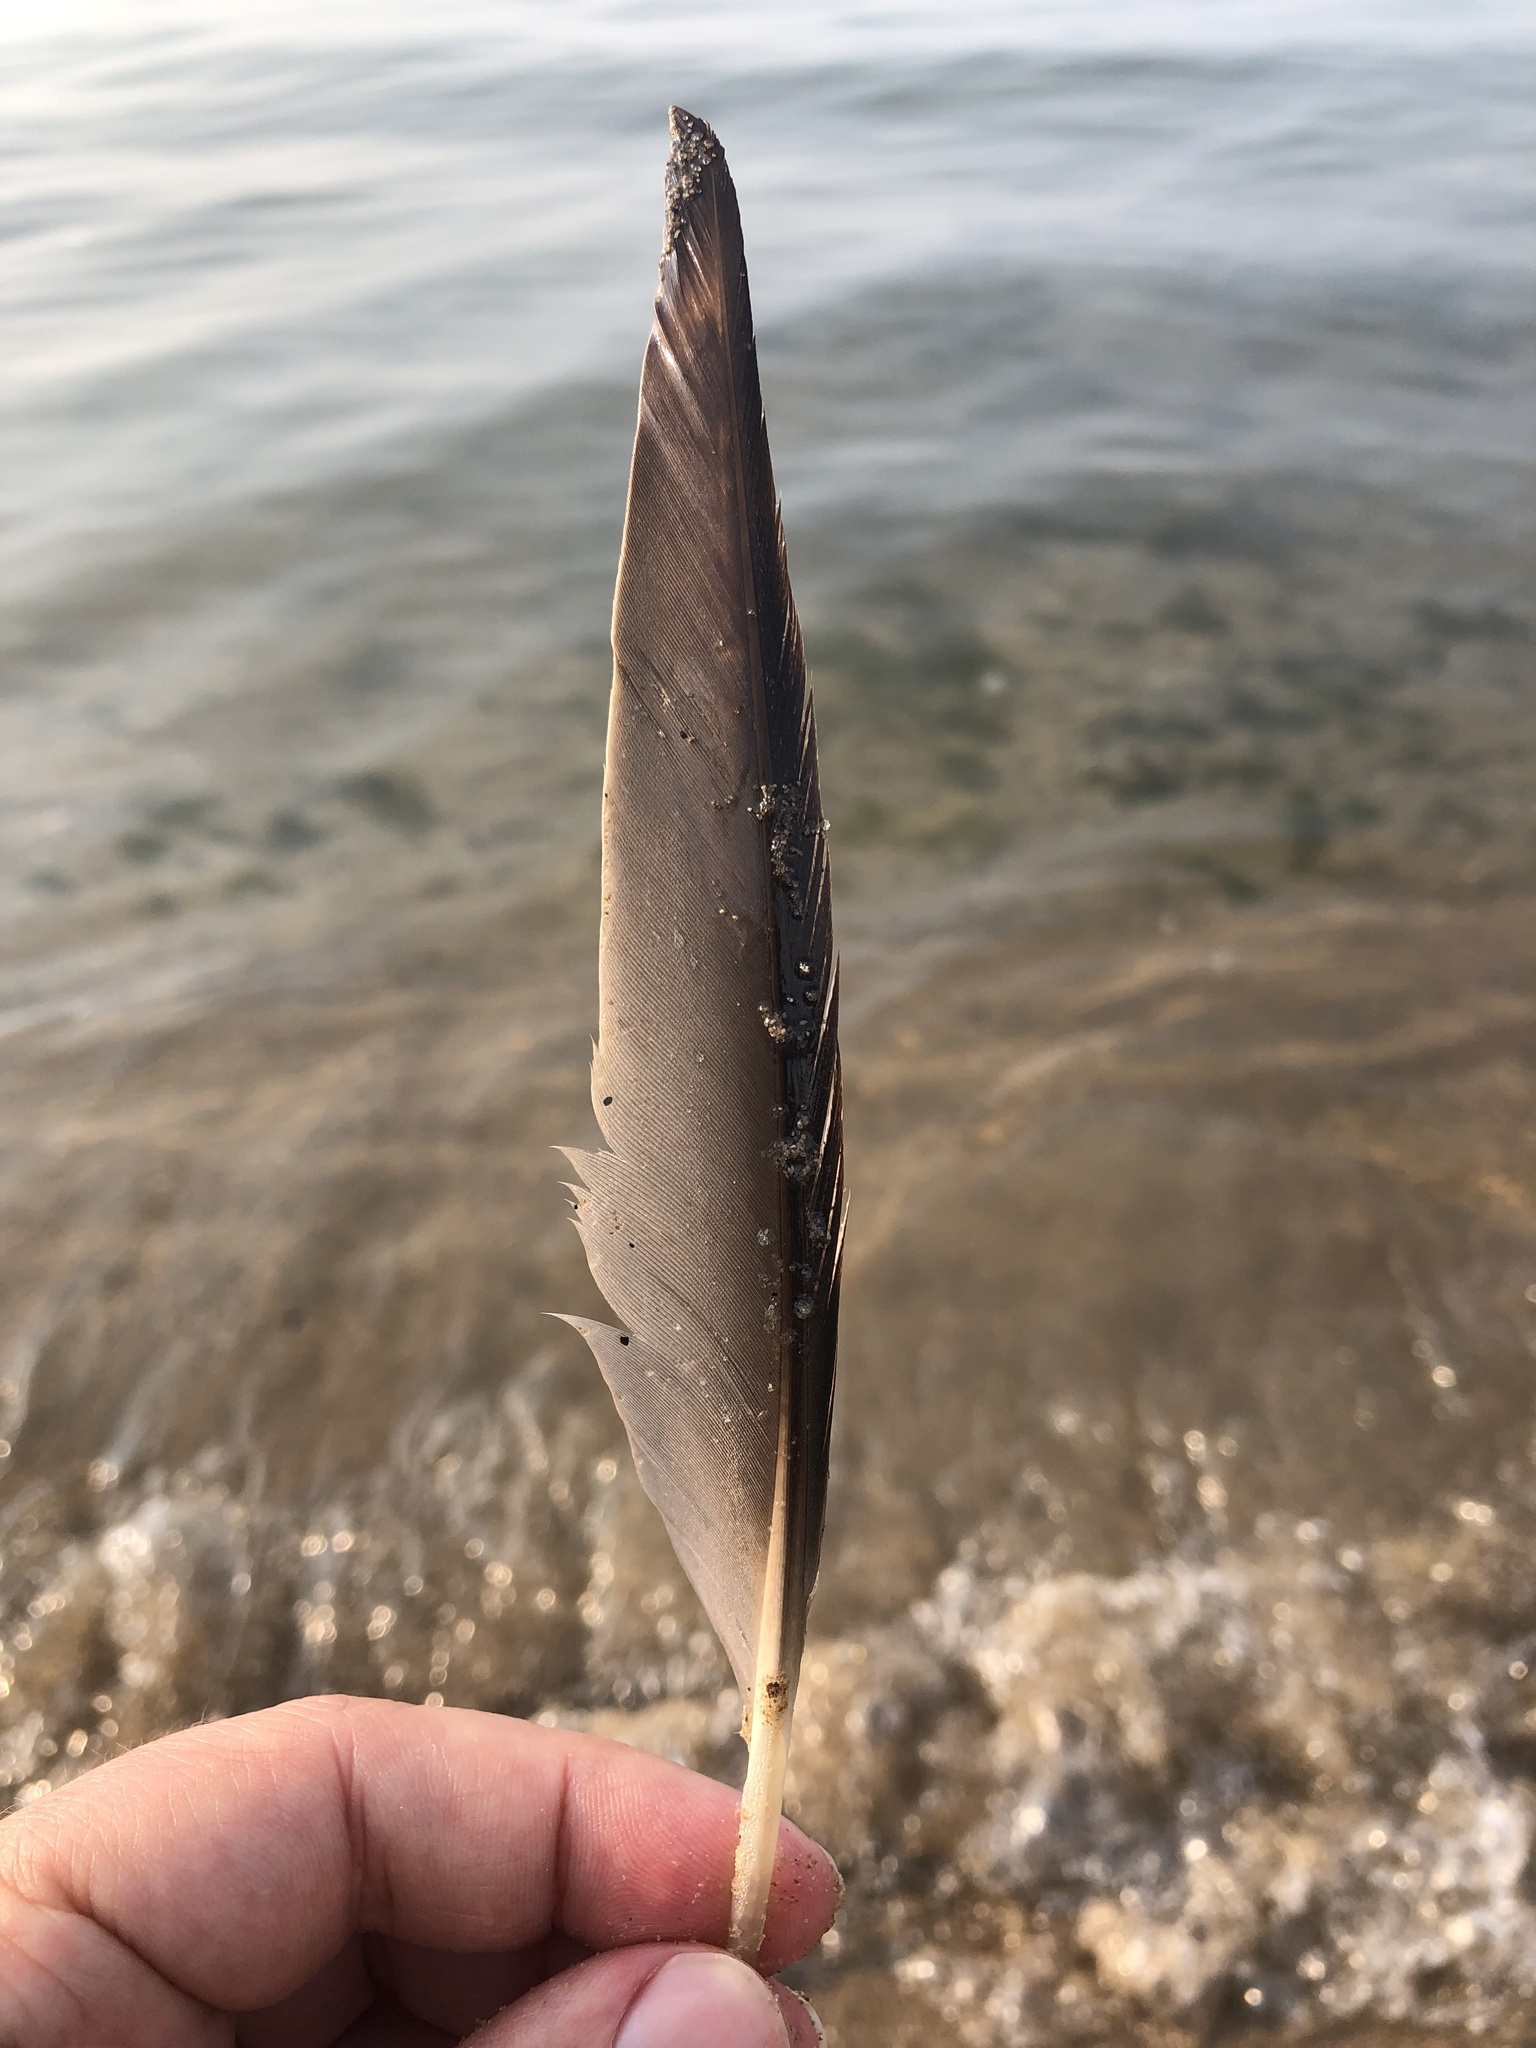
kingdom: Animalia
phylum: Chordata
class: Aves
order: Anseriformes
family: Anatidae
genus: Mergus
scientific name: Mergus merganser
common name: Common merganser
